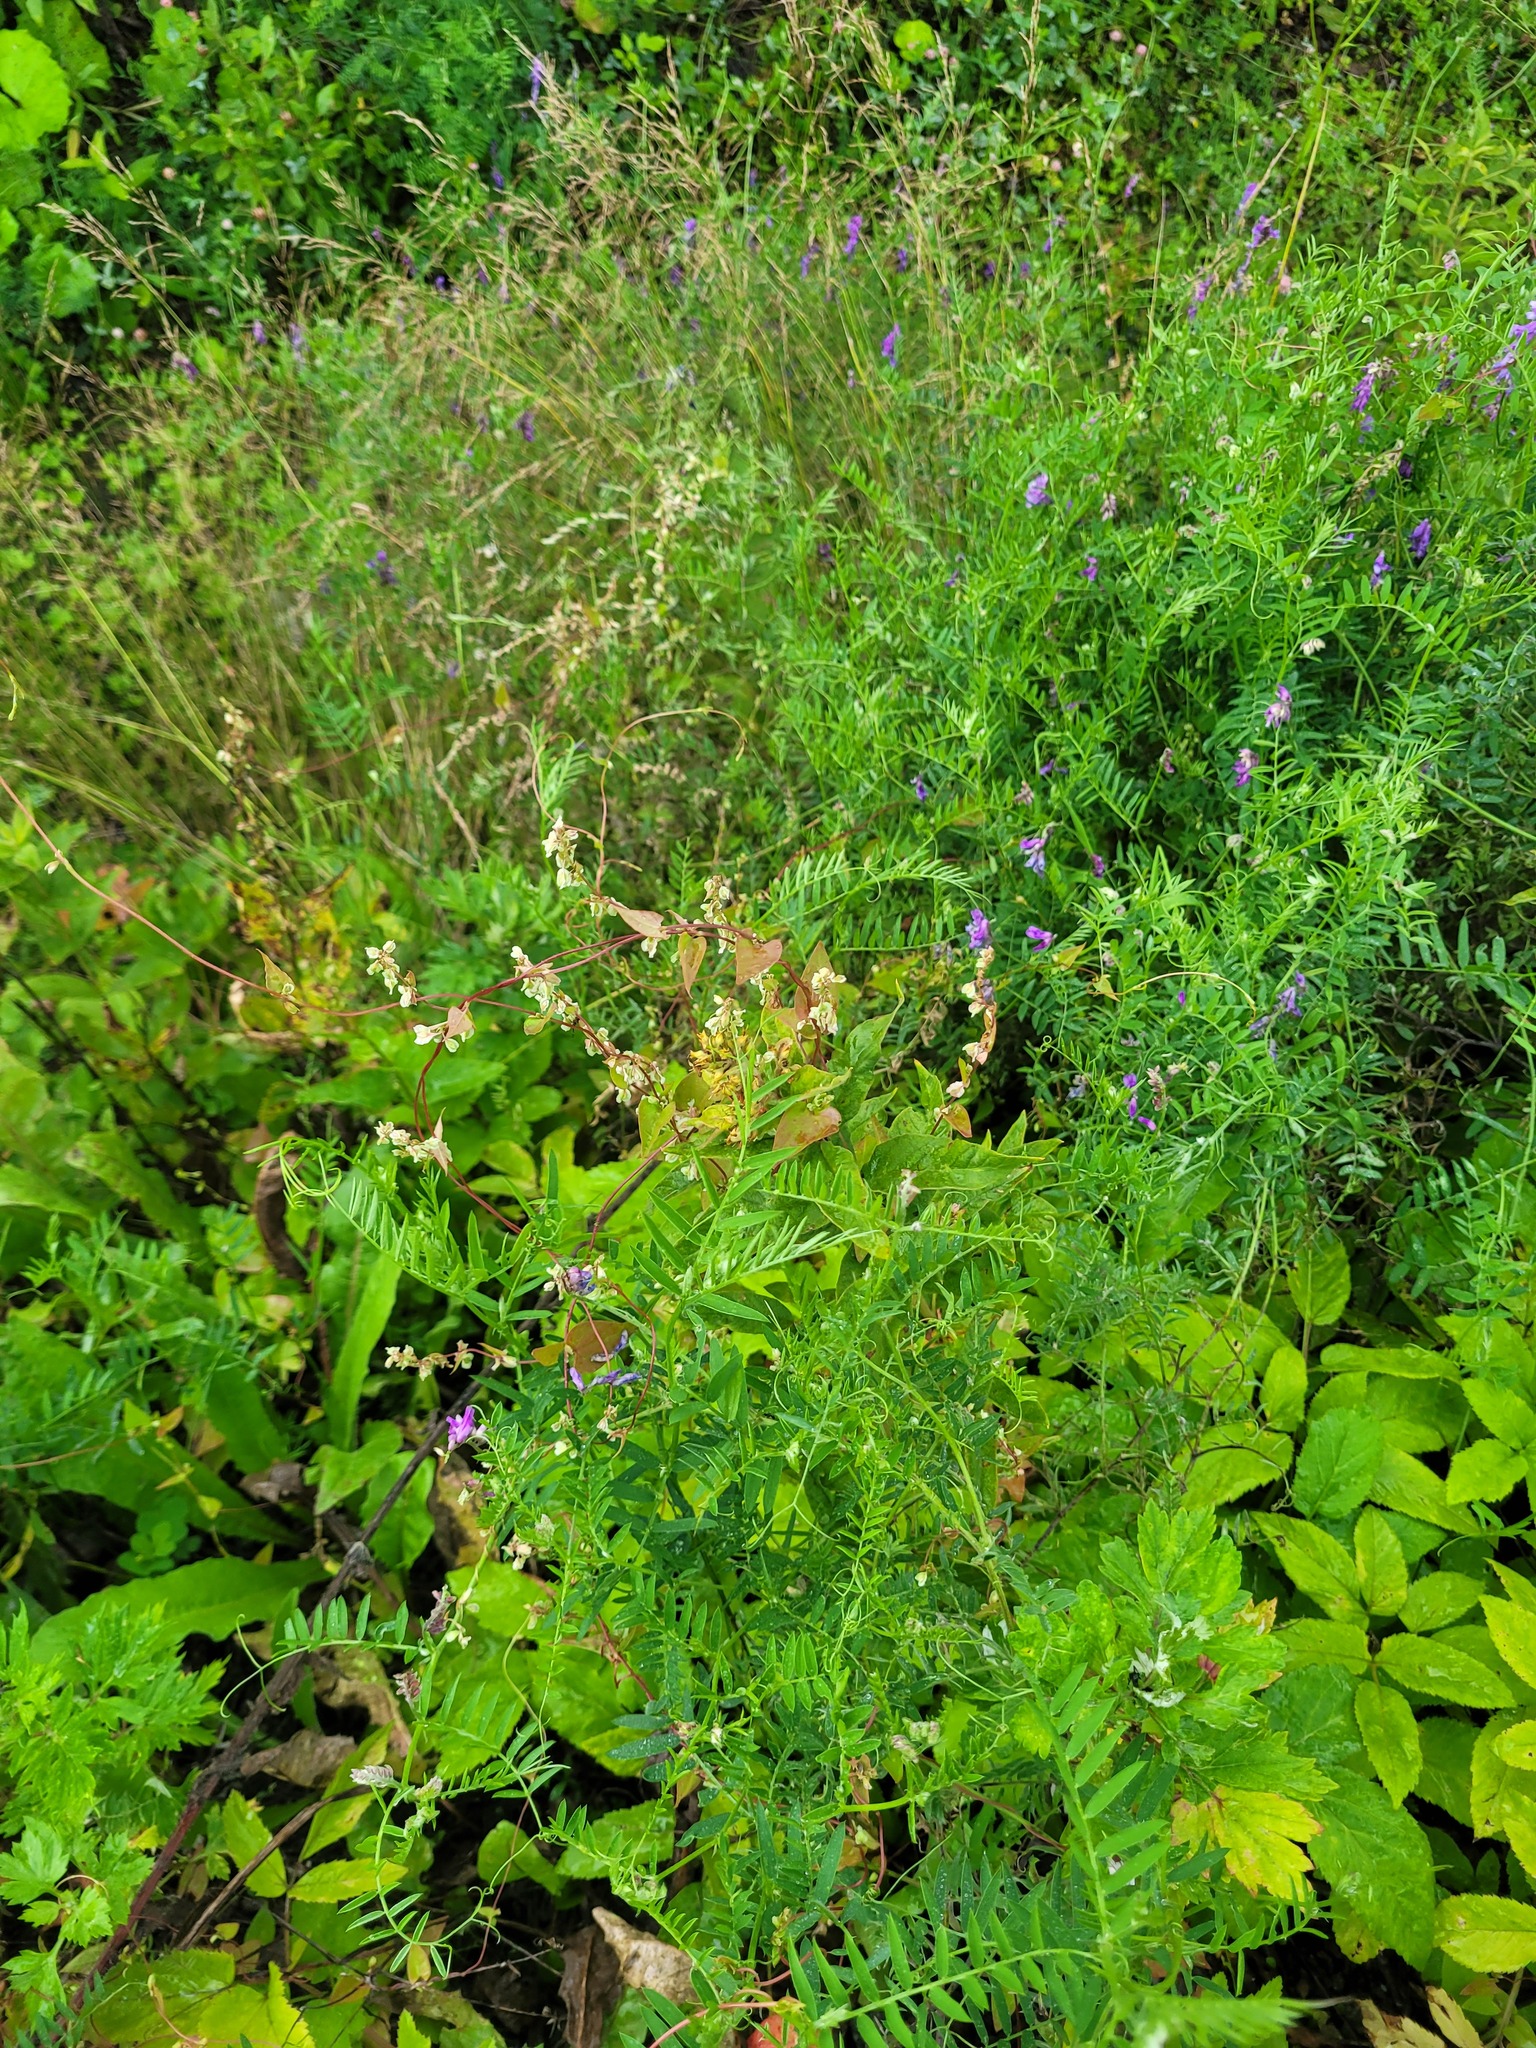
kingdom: Plantae
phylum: Tracheophyta
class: Magnoliopsida
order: Caryophyllales
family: Polygonaceae
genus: Fallopia
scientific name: Fallopia dumetorum
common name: Copse-bindweed
